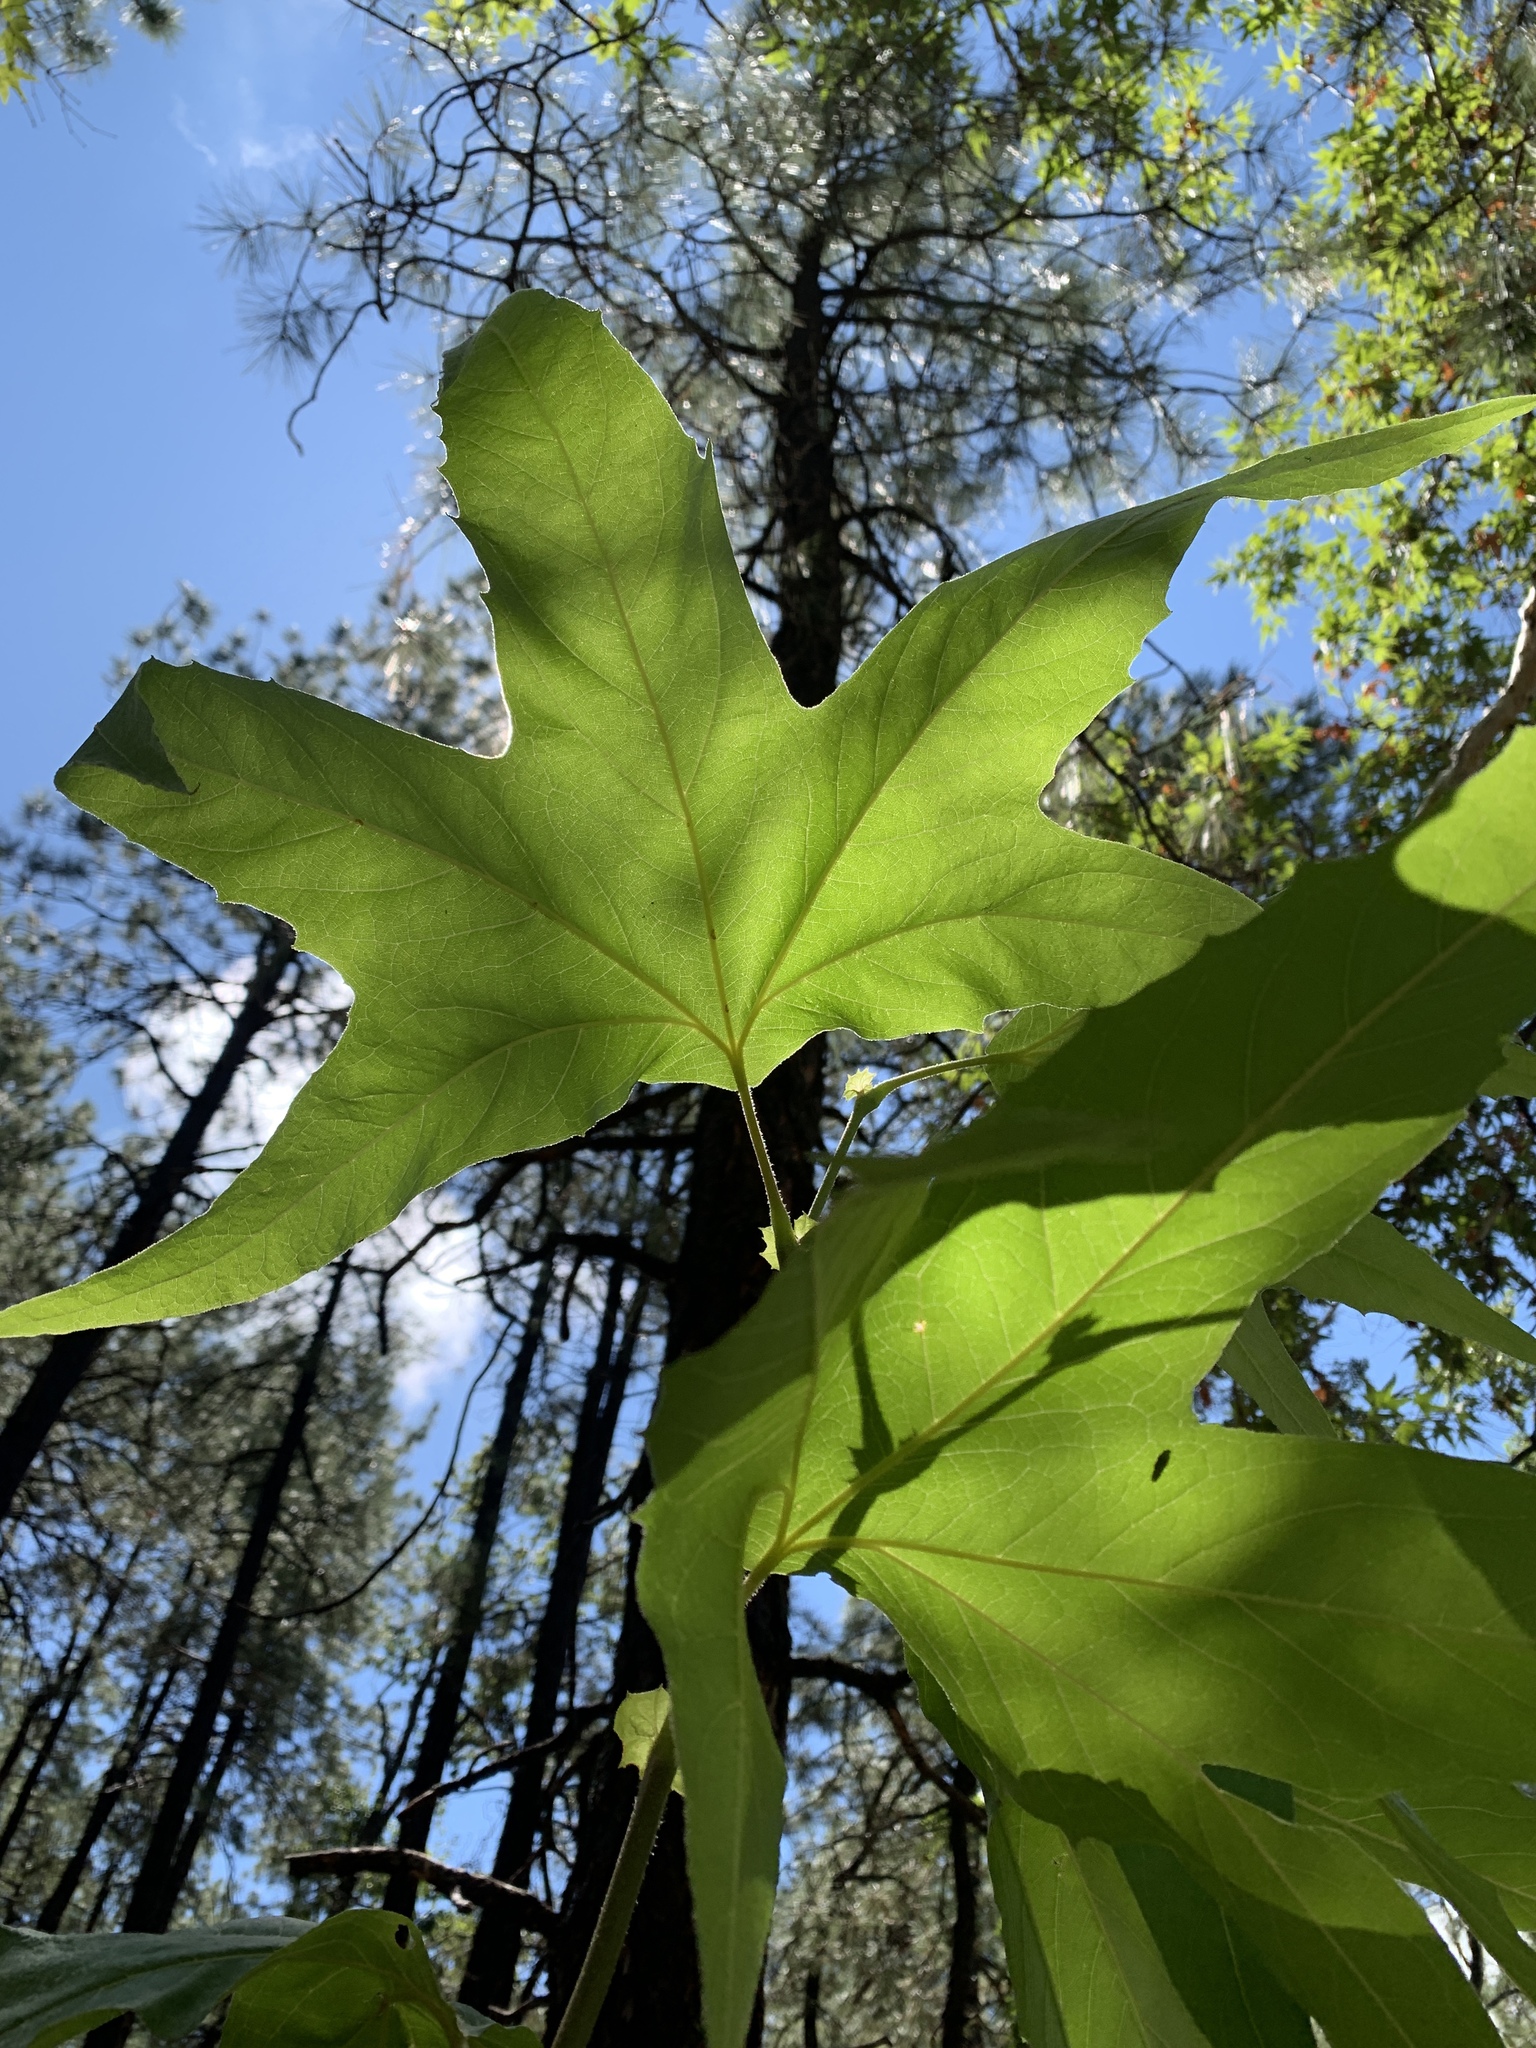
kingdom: Plantae
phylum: Tracheophyta
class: Magnoliopsida
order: Proteales
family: Platanaceae
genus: Platanus
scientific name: Platanus wrightii
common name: Arizona sycamore
